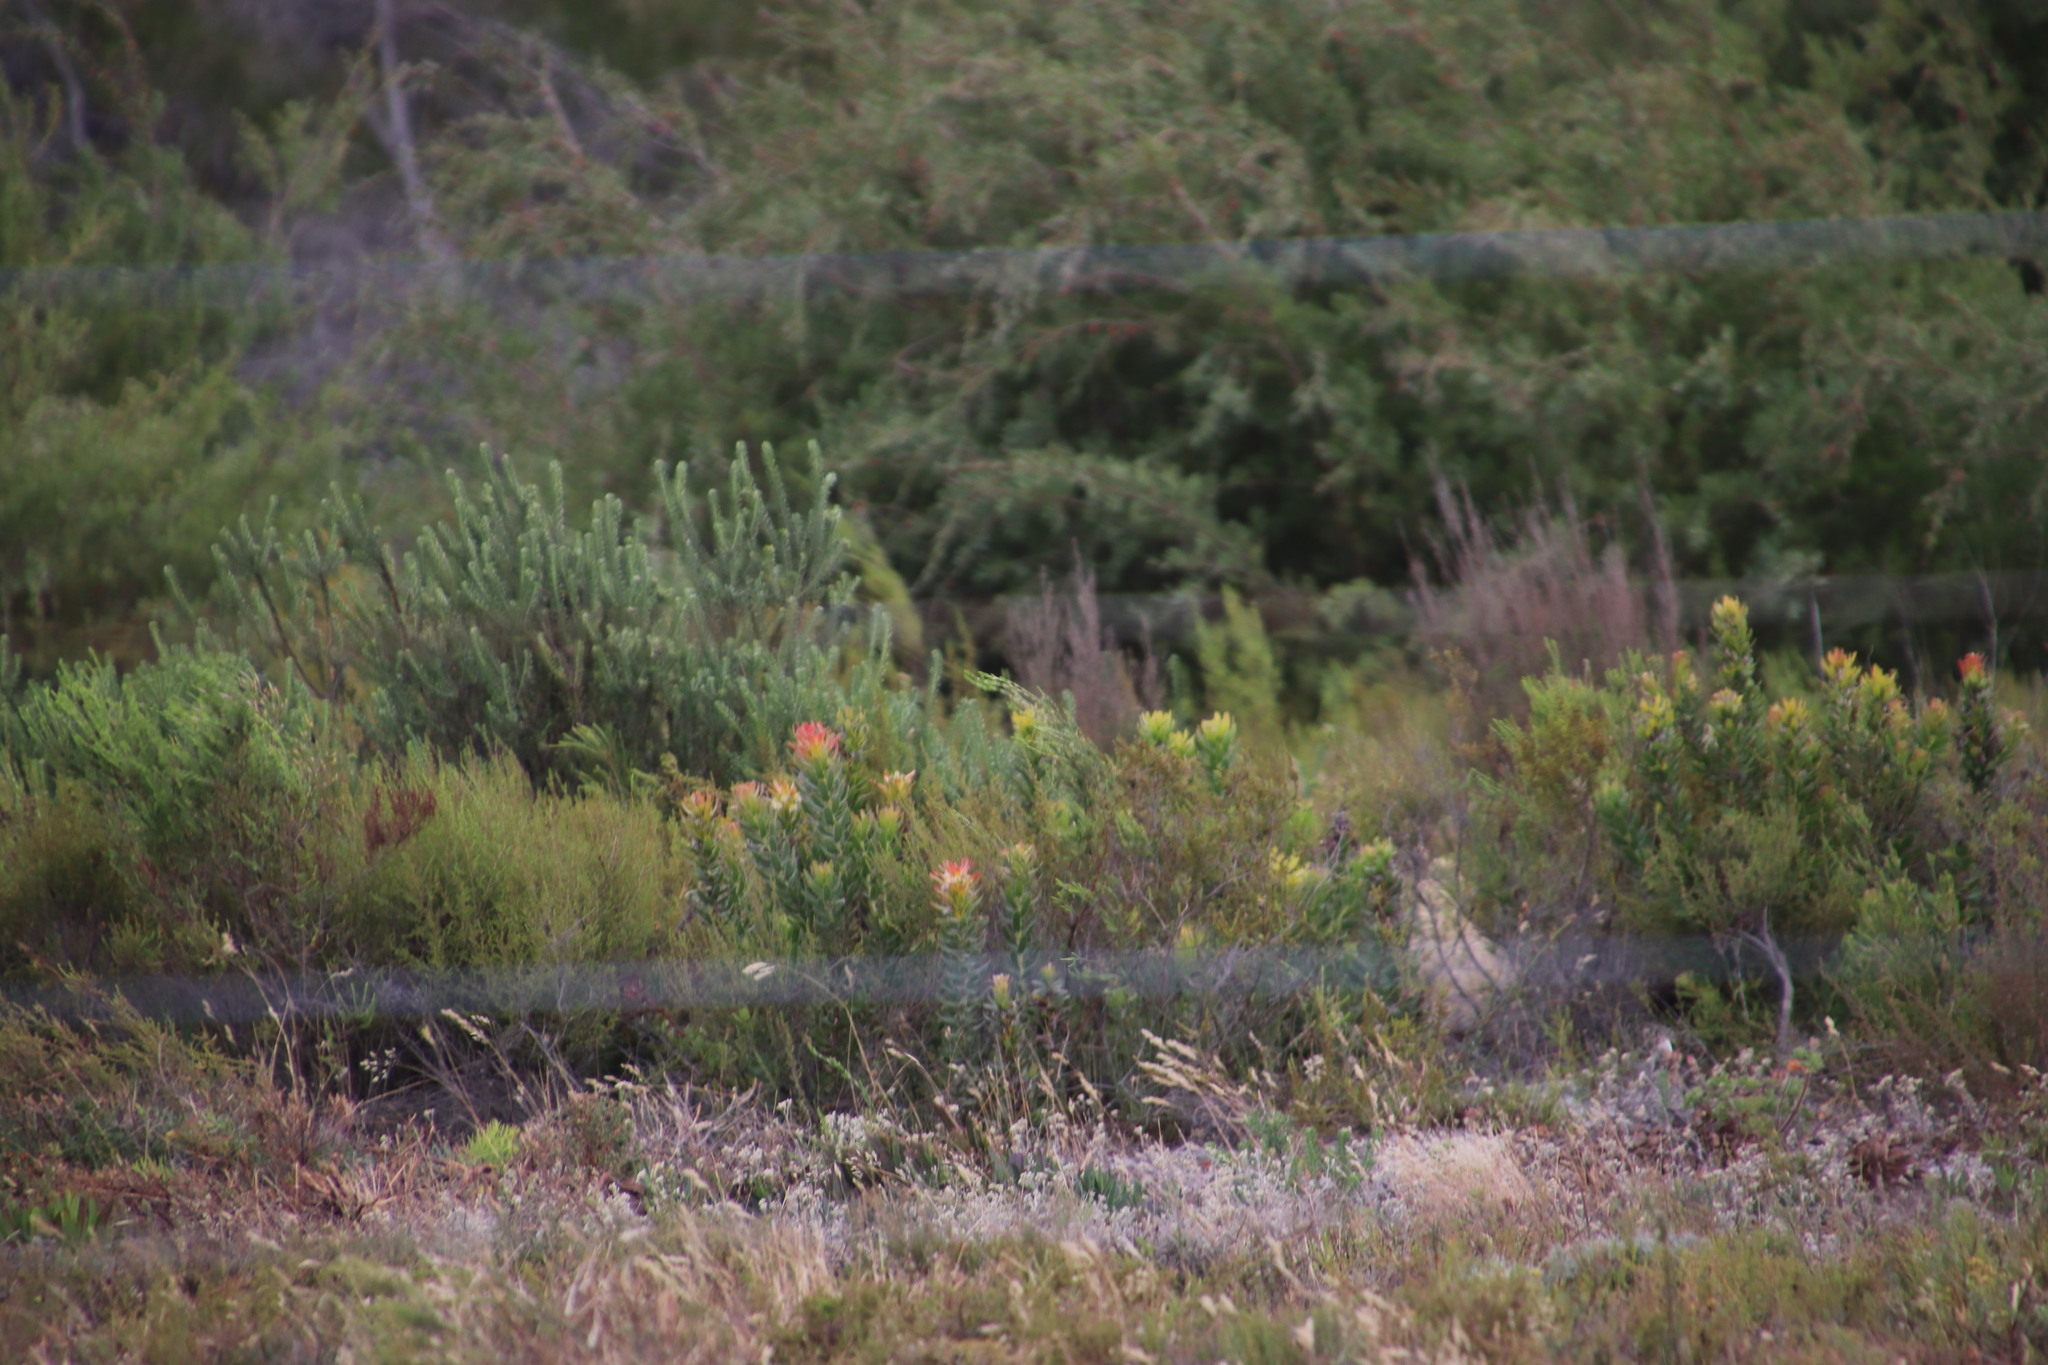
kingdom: Plantae
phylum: Tracheophyta
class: Magnoliopsida
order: Proteales
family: Proteaceae
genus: Mimetes
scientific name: Mimetes cucullatus
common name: Common pagoda
